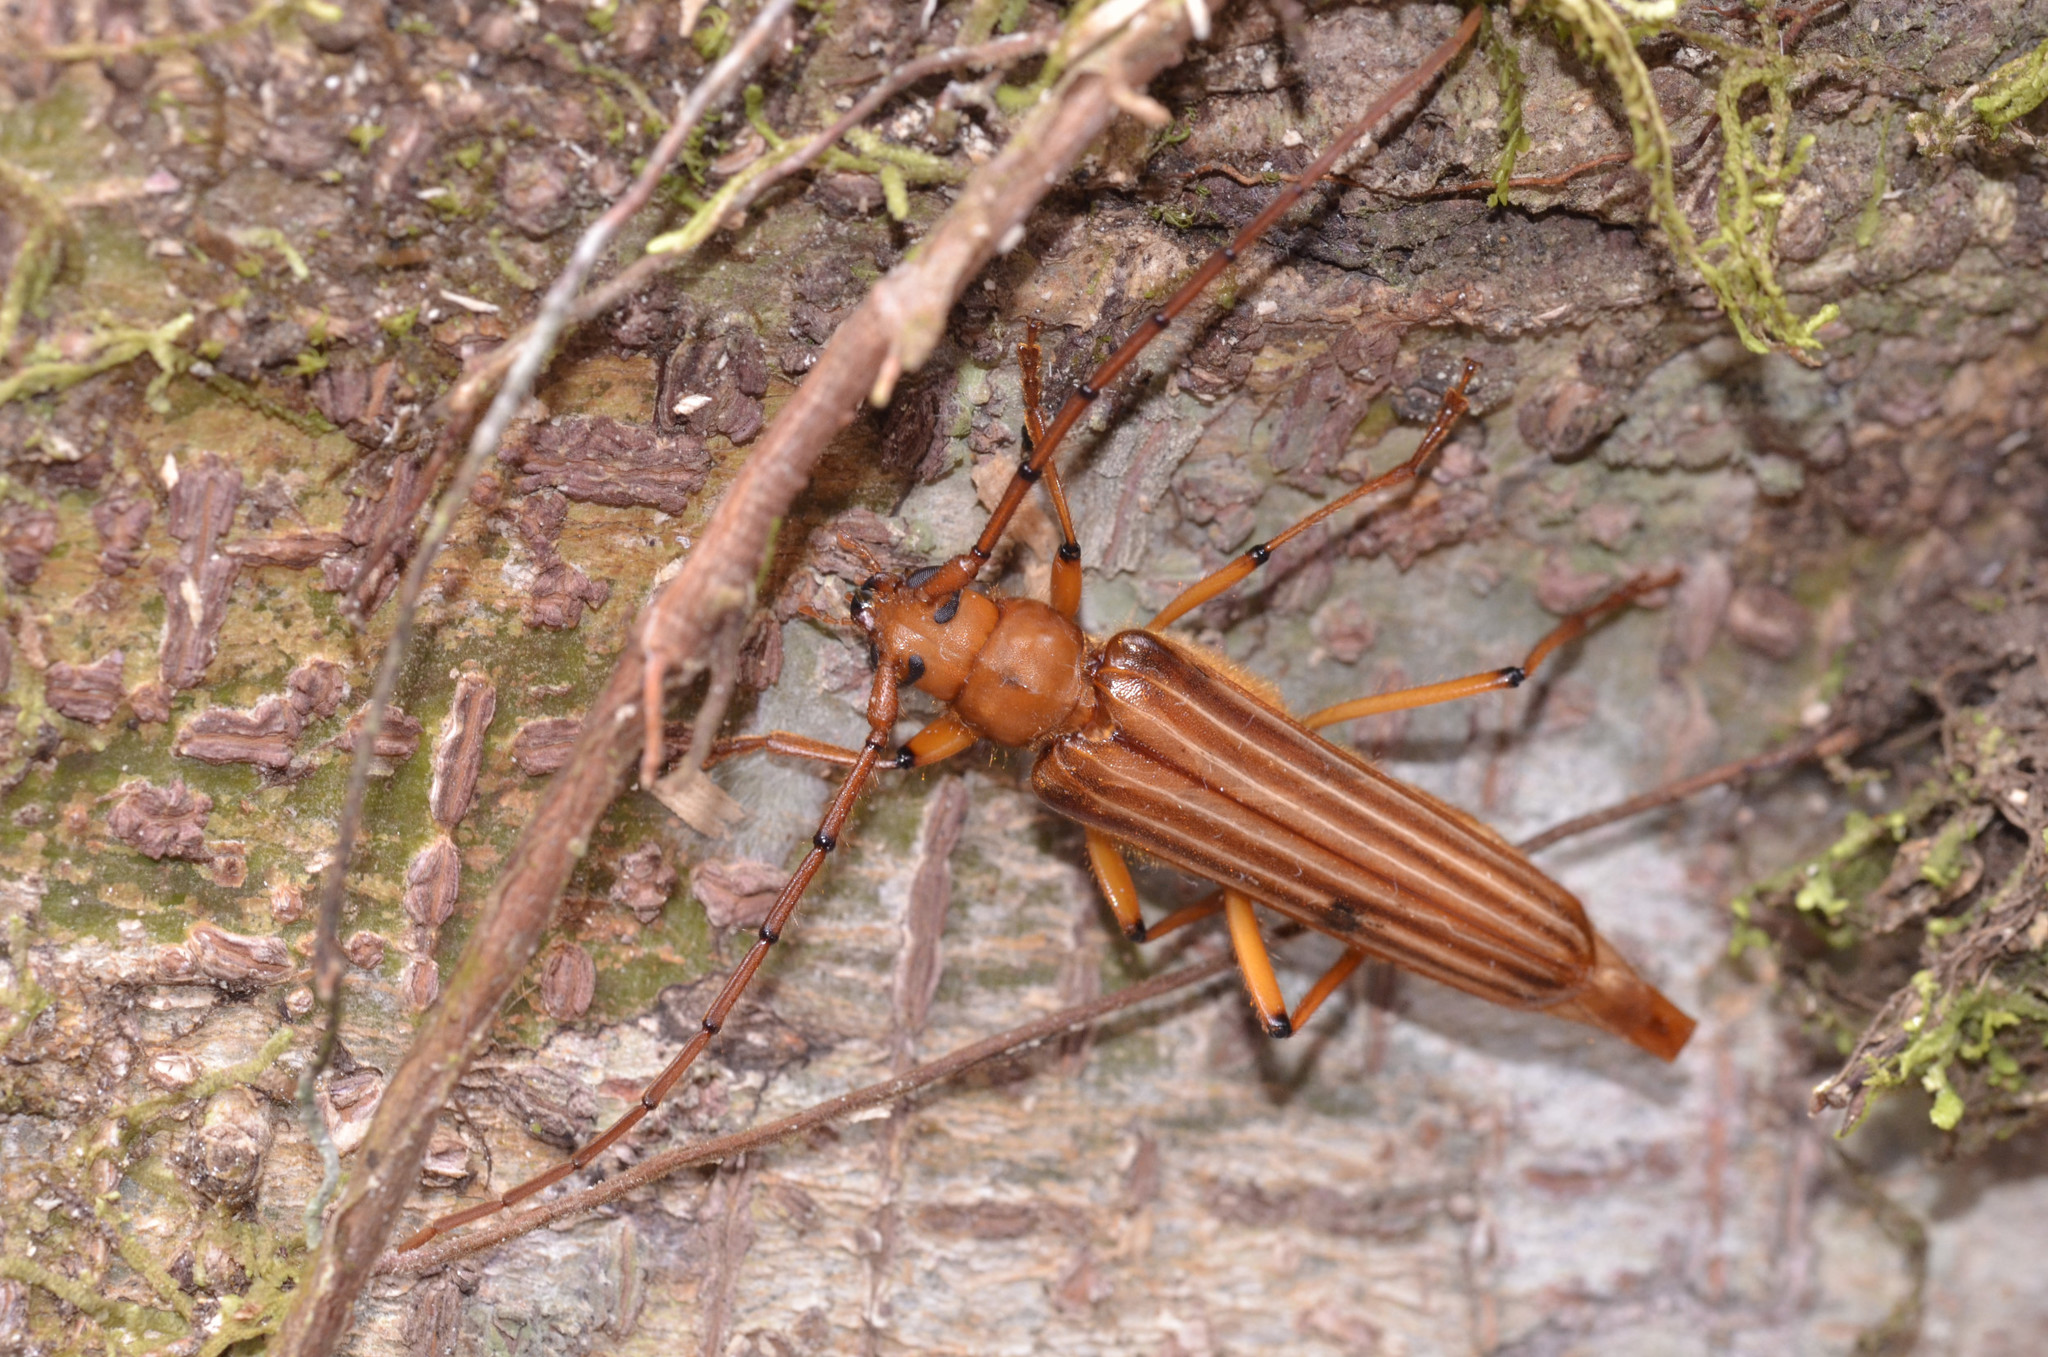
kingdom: Animalia
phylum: Arthropoda
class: Insecta
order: Coleoptera
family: Cerambycidae
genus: Malacopterus
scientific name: Malacopterus tenellus
